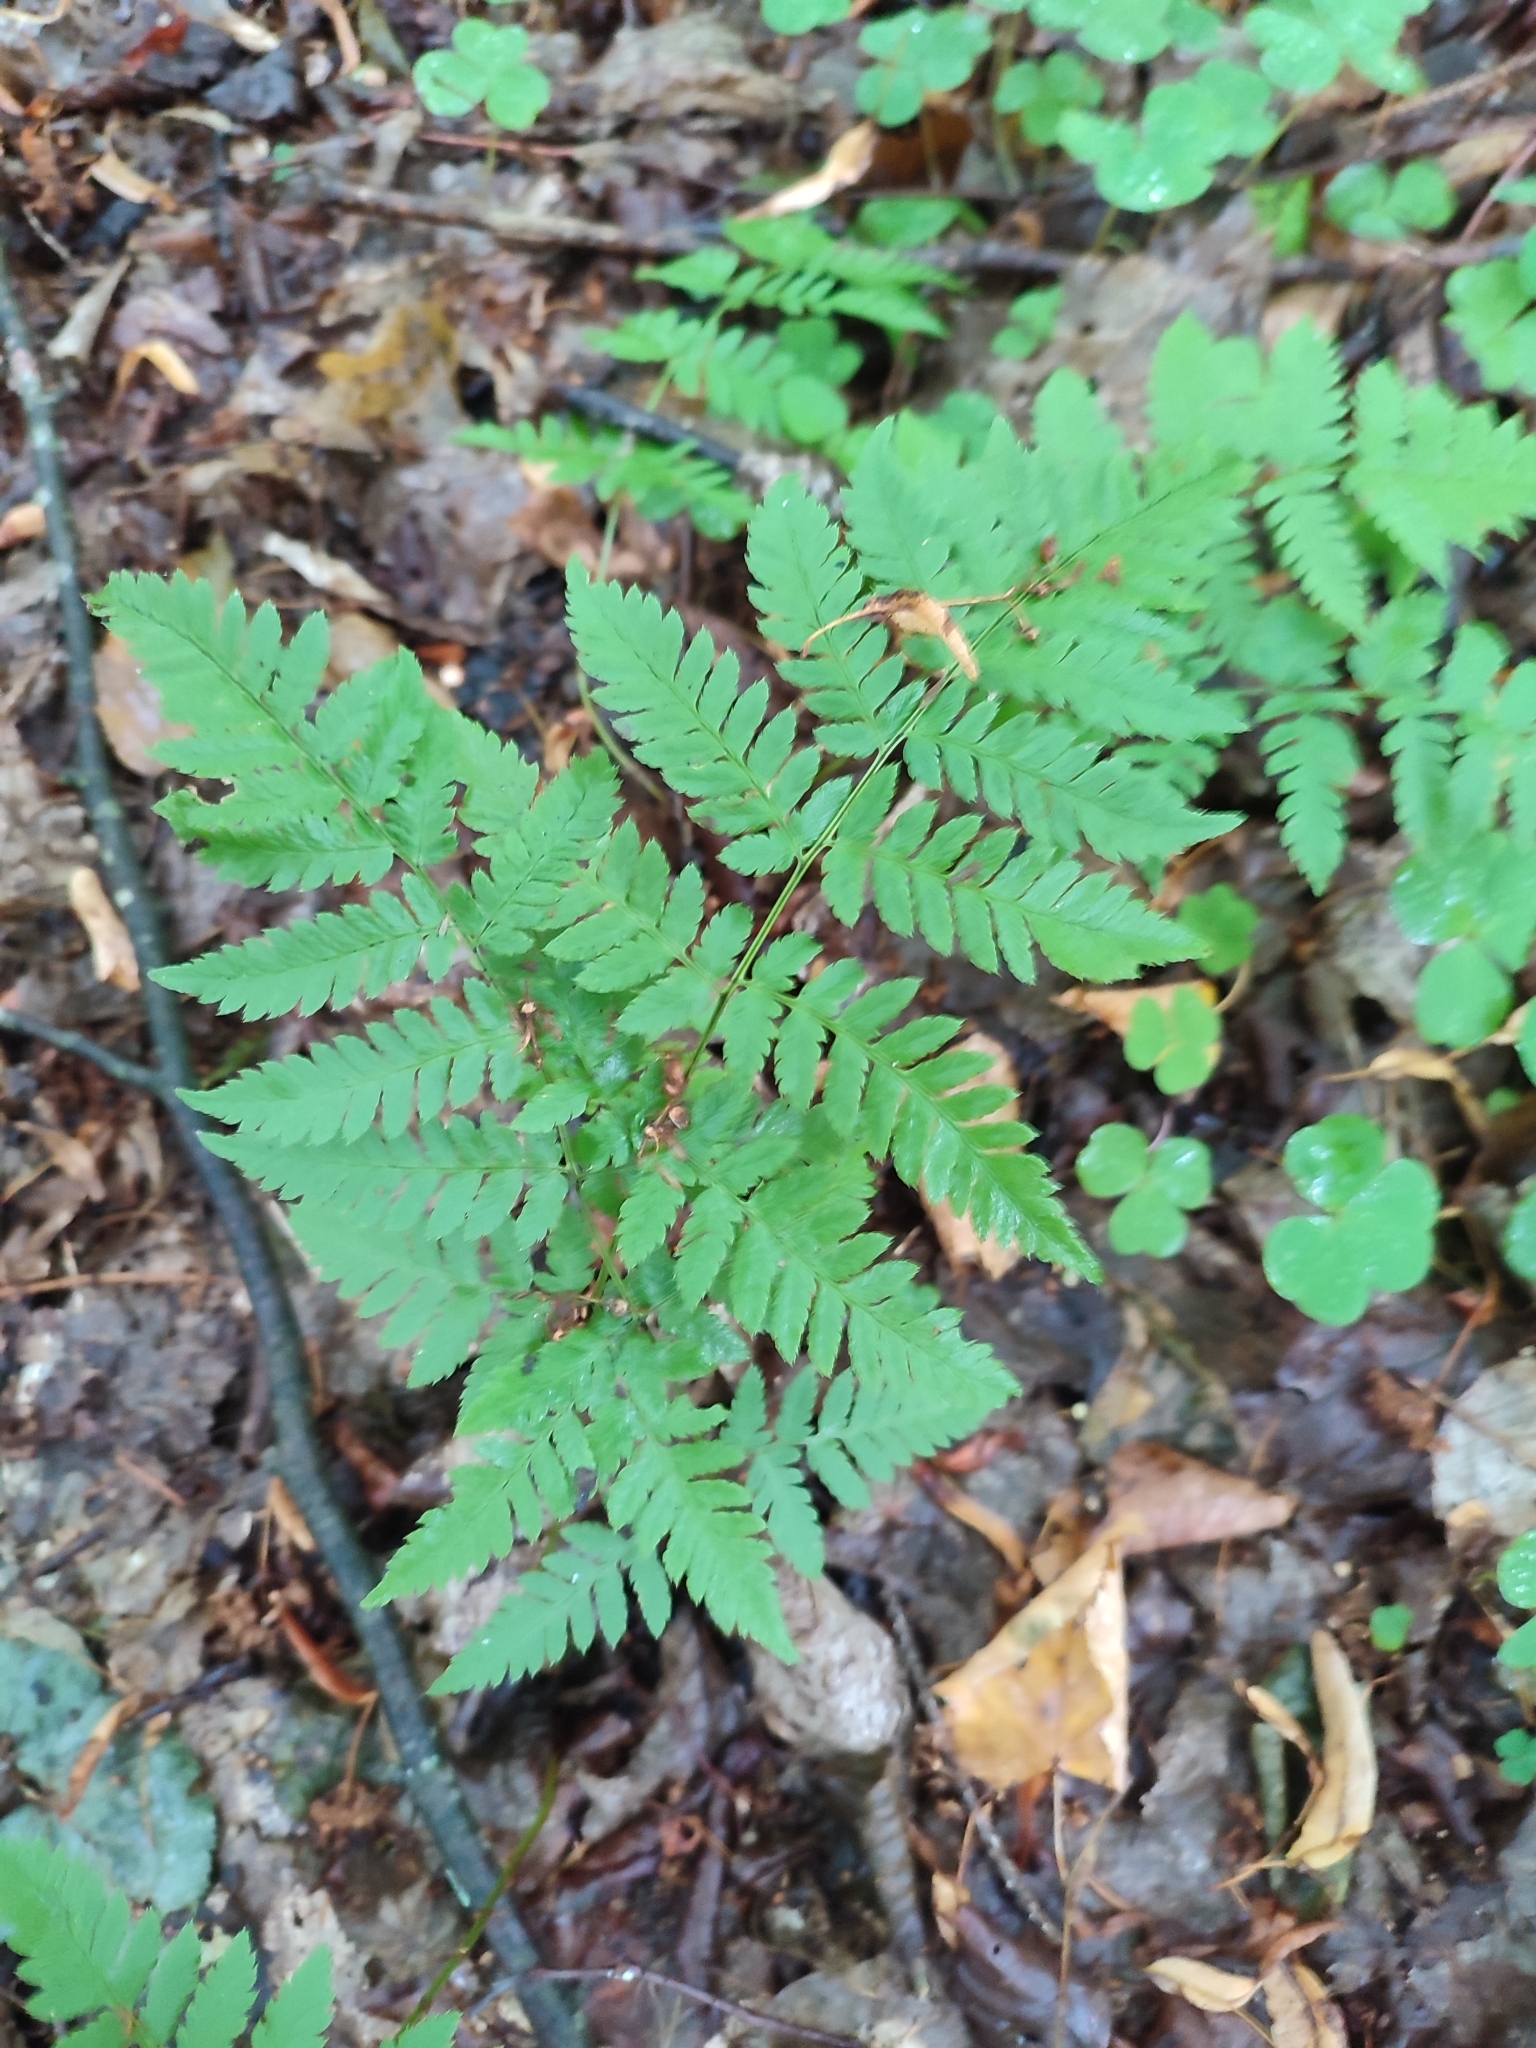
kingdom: Plantae
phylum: Tracheophyta
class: Polypodiopsida
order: Polypodiales
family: Dryopteridaceae
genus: Dryopteris
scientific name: Dryopteris carthusiana
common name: Narrow buckler-fern
